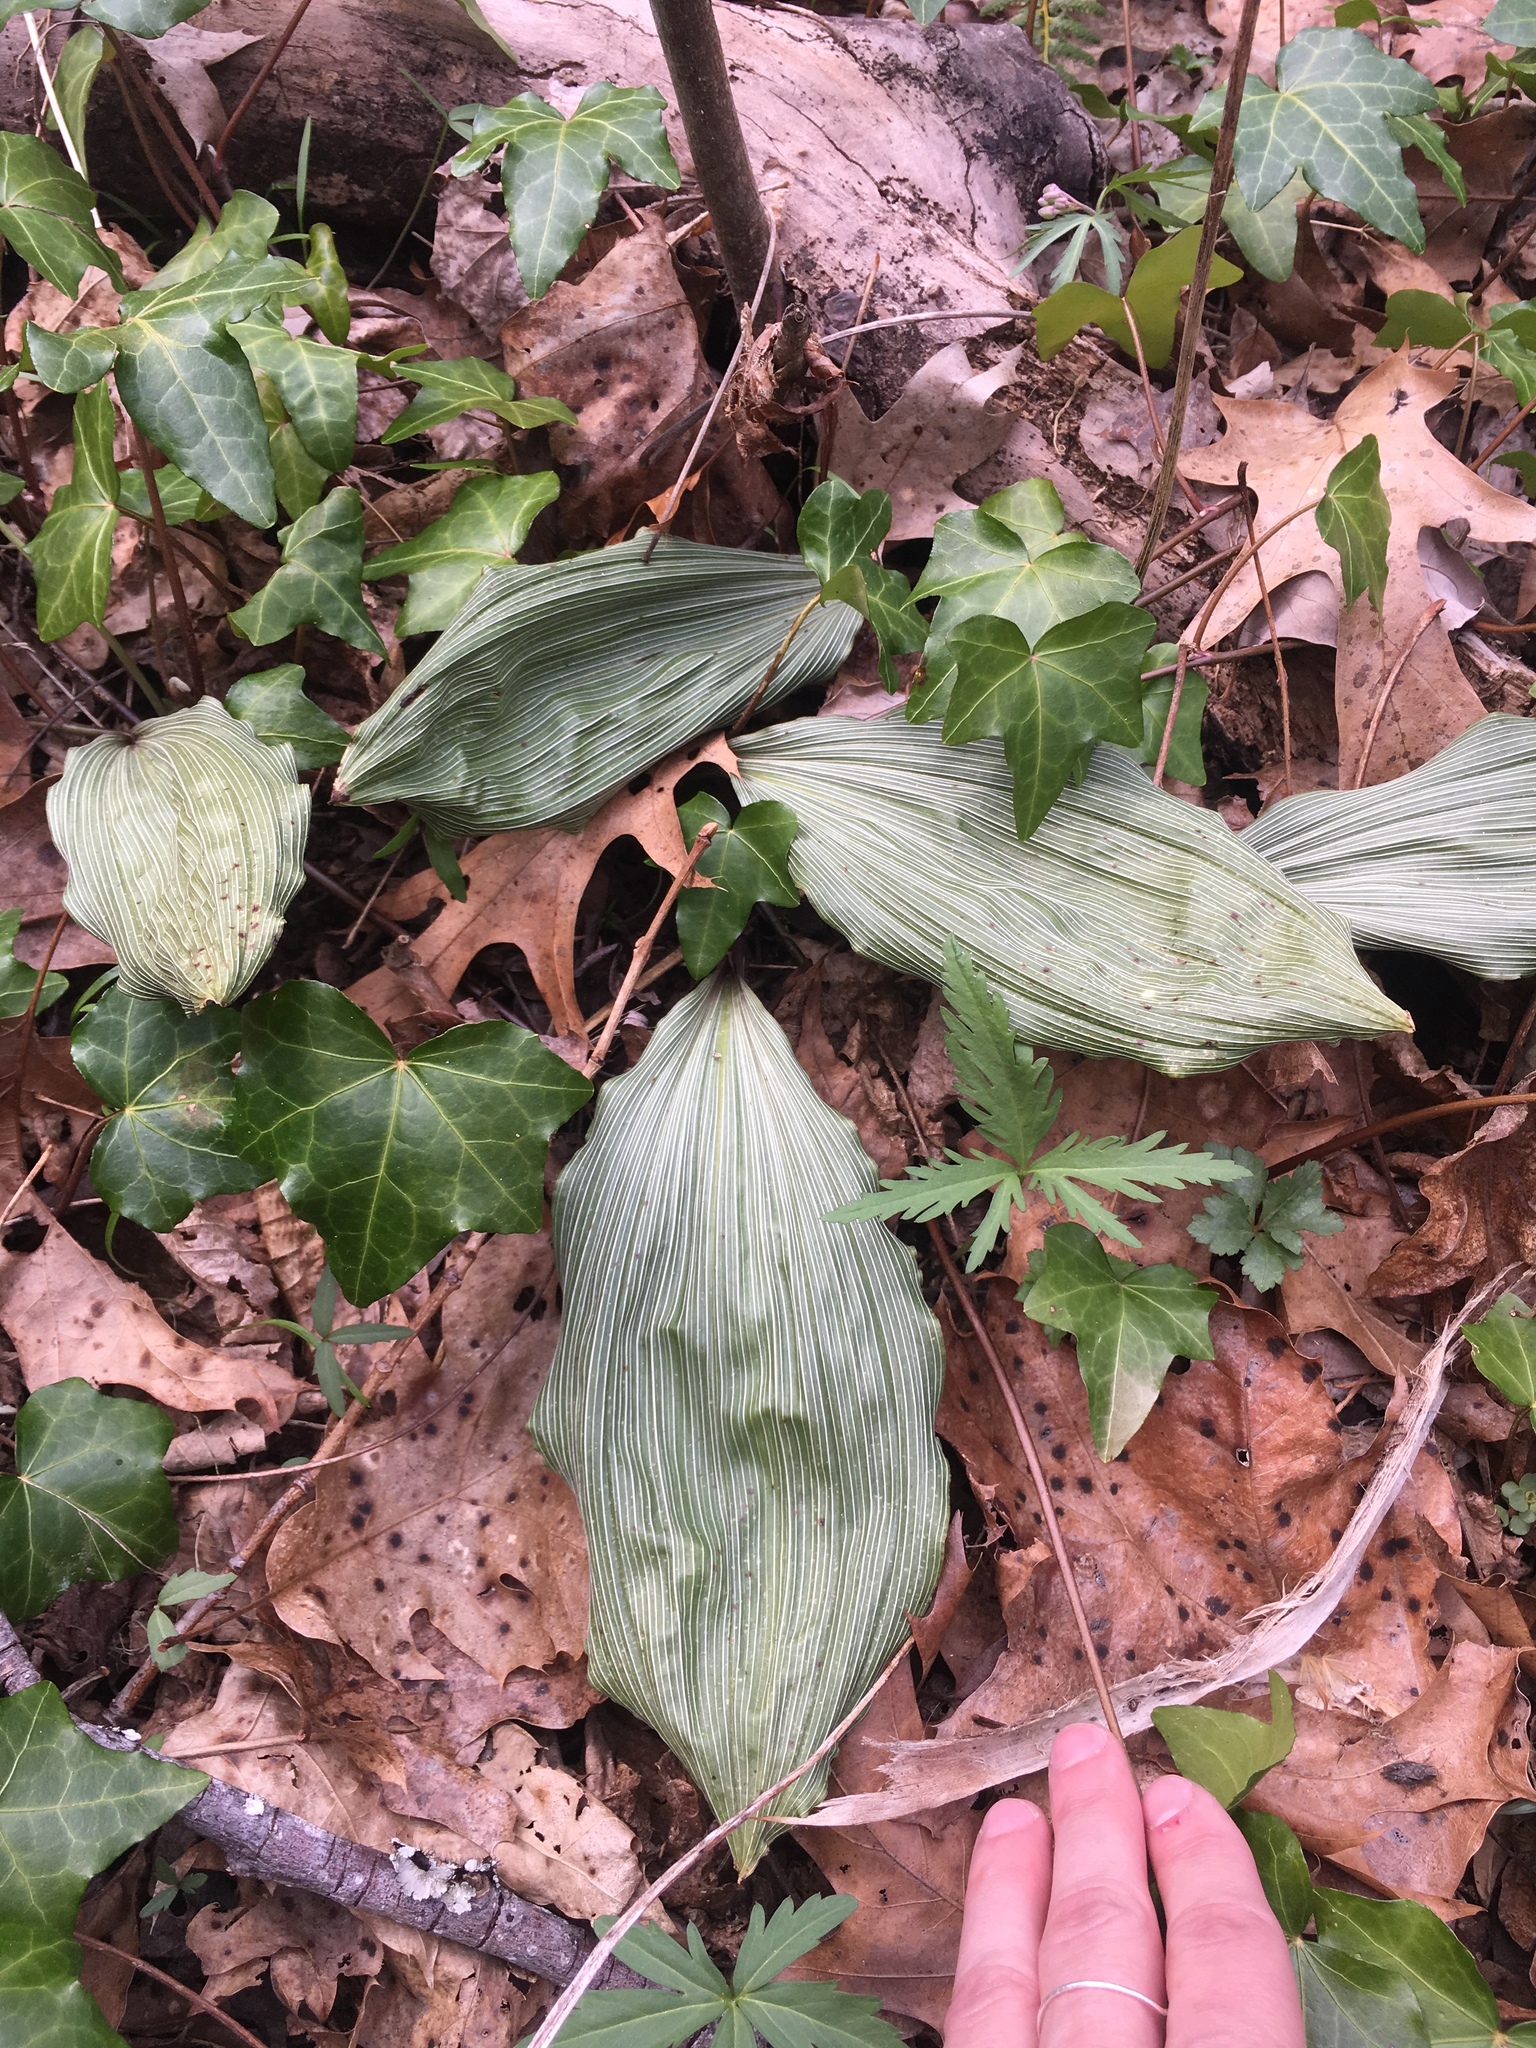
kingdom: Plantae
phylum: Tracheophyta
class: Liliopsida
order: Asparagales
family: Orchidaceae
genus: Aplectrum
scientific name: Aplectrum hyemale
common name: Adam-and-eve
